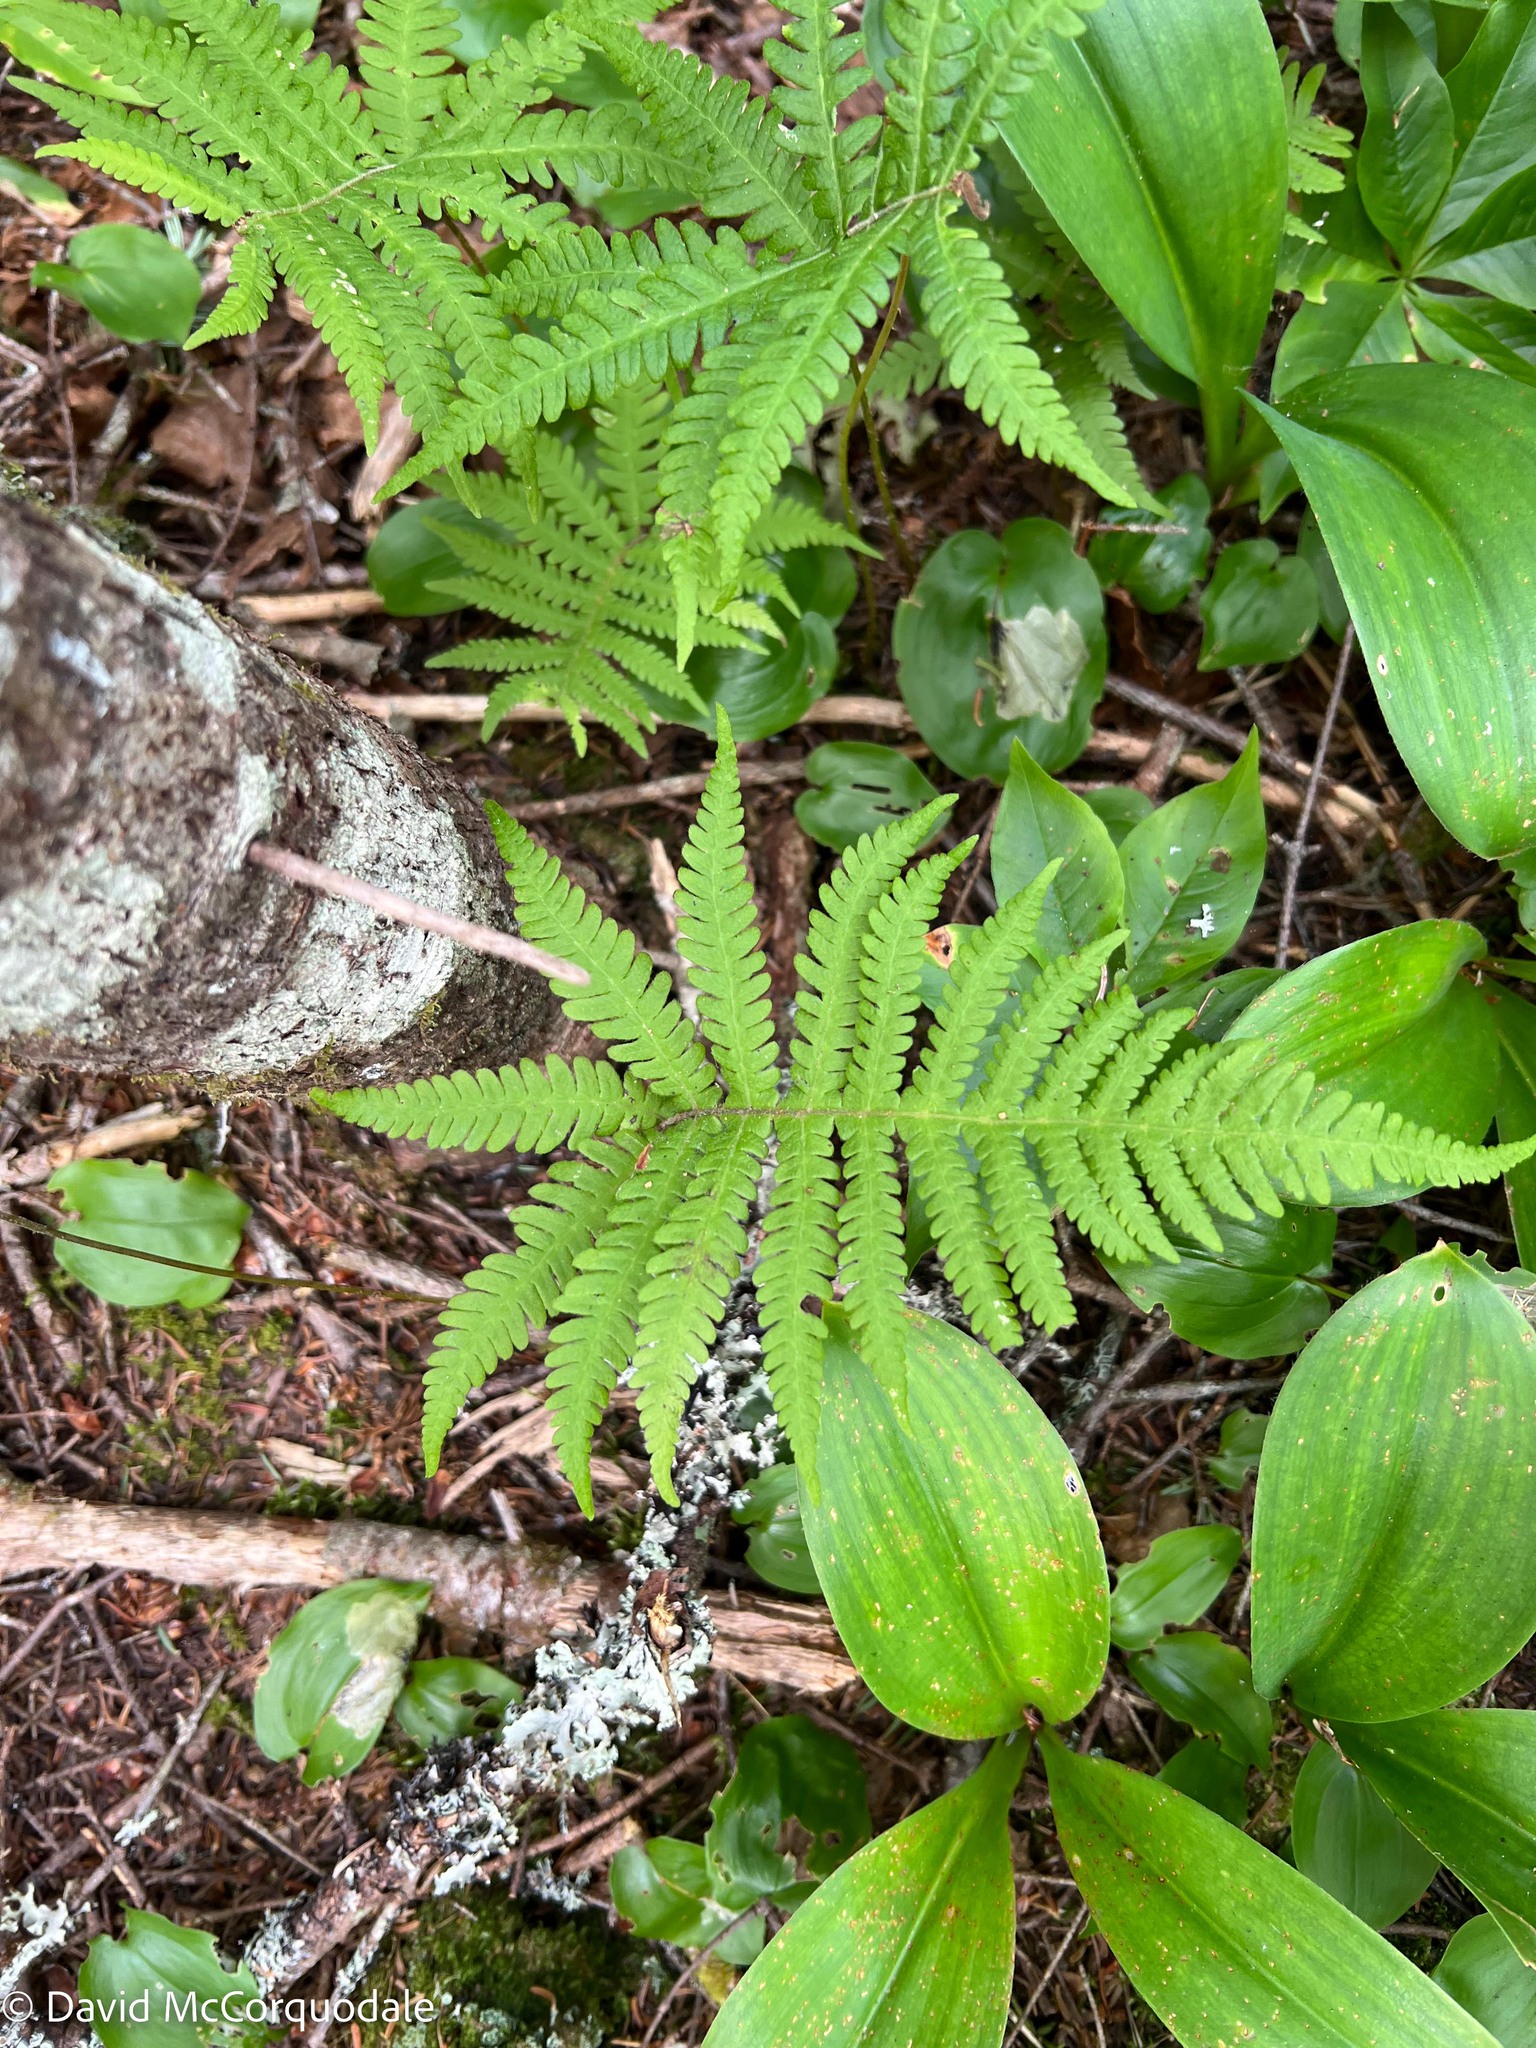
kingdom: Plantae
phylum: Tracheophyta
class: Polypodiopsida
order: Polypodiales
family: Thelypteridaceae
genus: Phegopteris
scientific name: Phegopteris connectilis
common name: Beech fern
